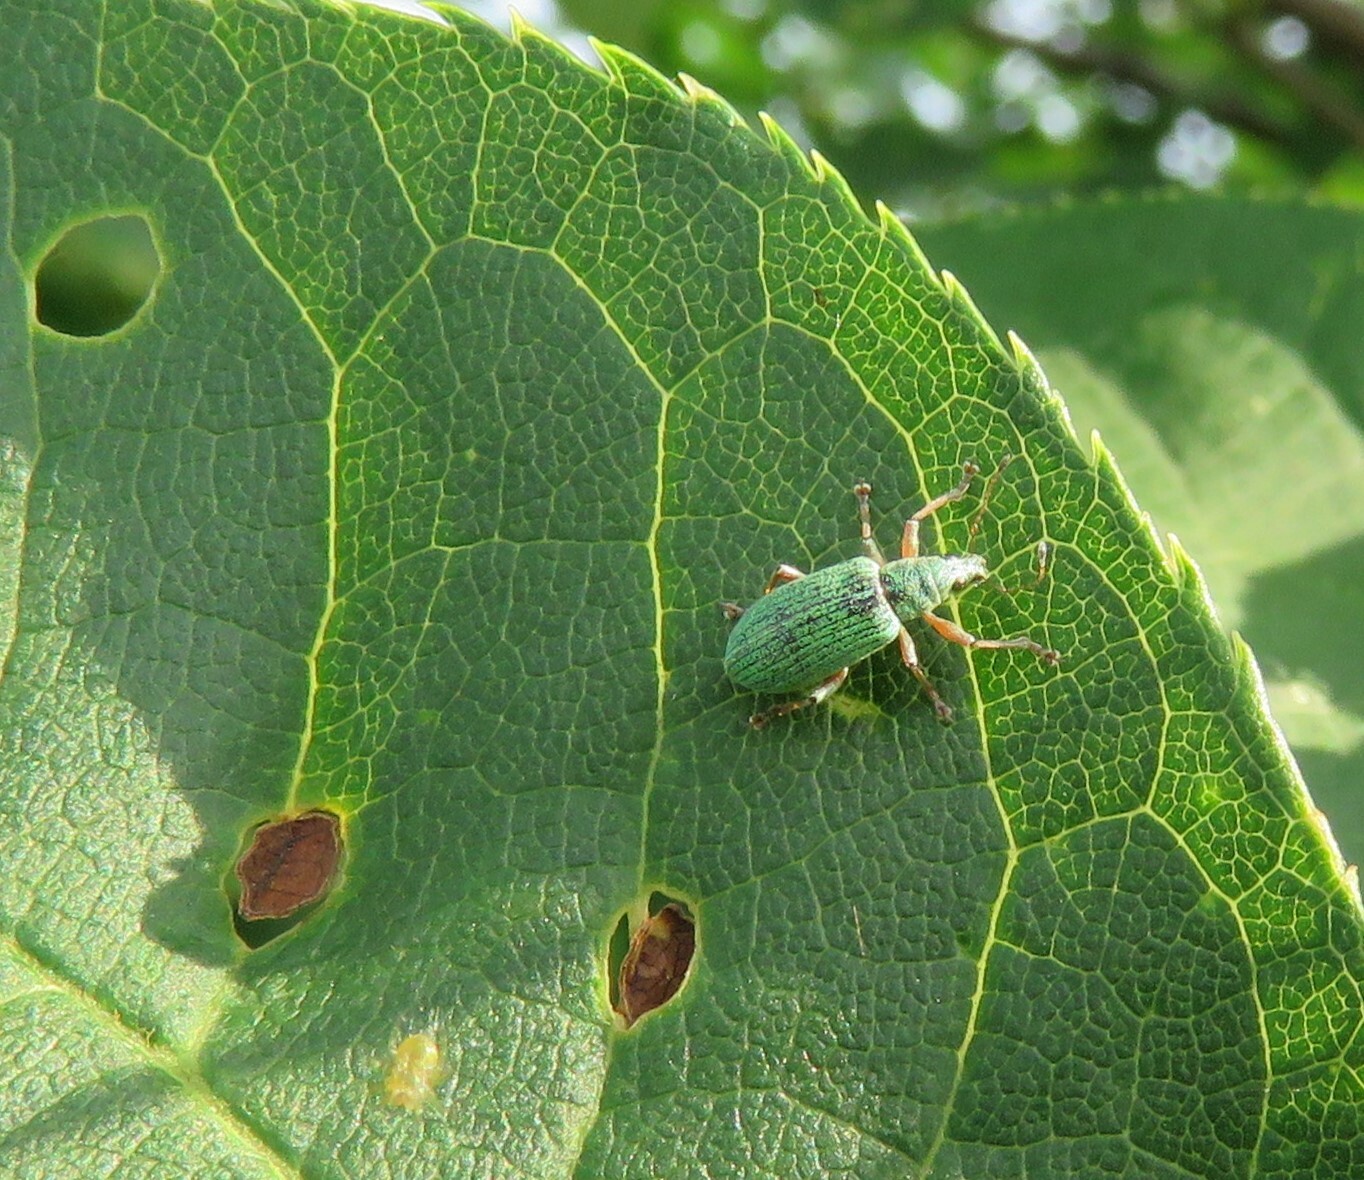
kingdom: Animalia
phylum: Arthropoda
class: Insecta
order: Coleoptera
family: Curculionidae
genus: Polydrusus
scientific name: Polydrusus formosus
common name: Weevil
